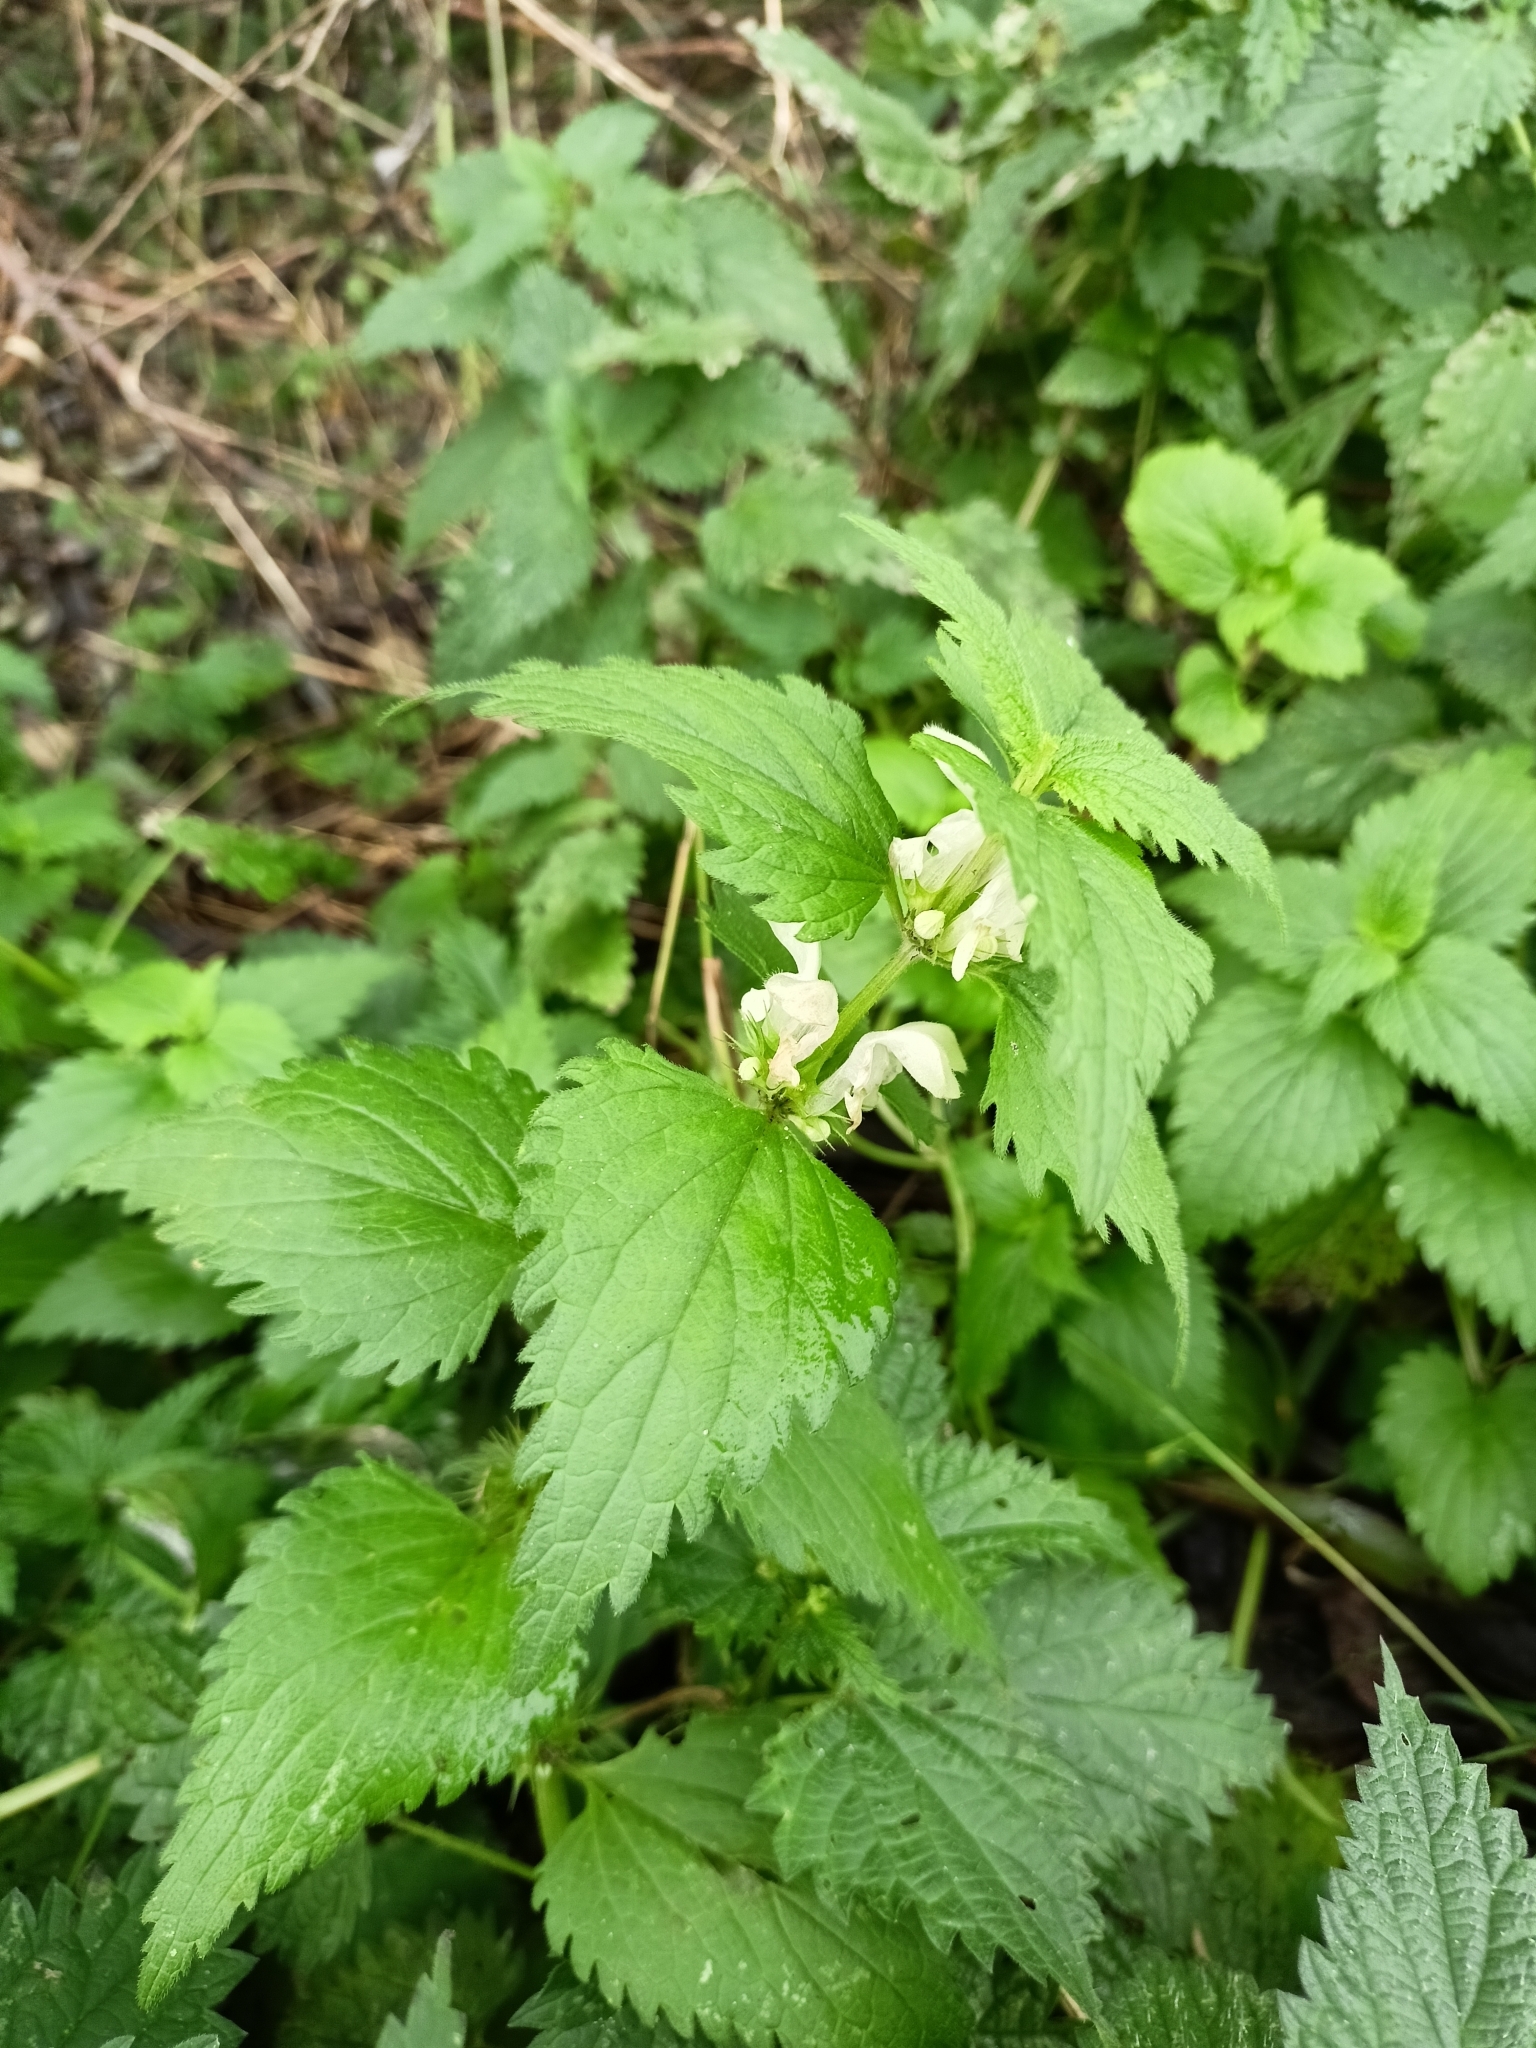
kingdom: Plantae
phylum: Tracheophyta
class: Magnoliopsida
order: Lamiales
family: Lamiaceae
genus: Lamium
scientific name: Lamium album
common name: White dead-nettle
